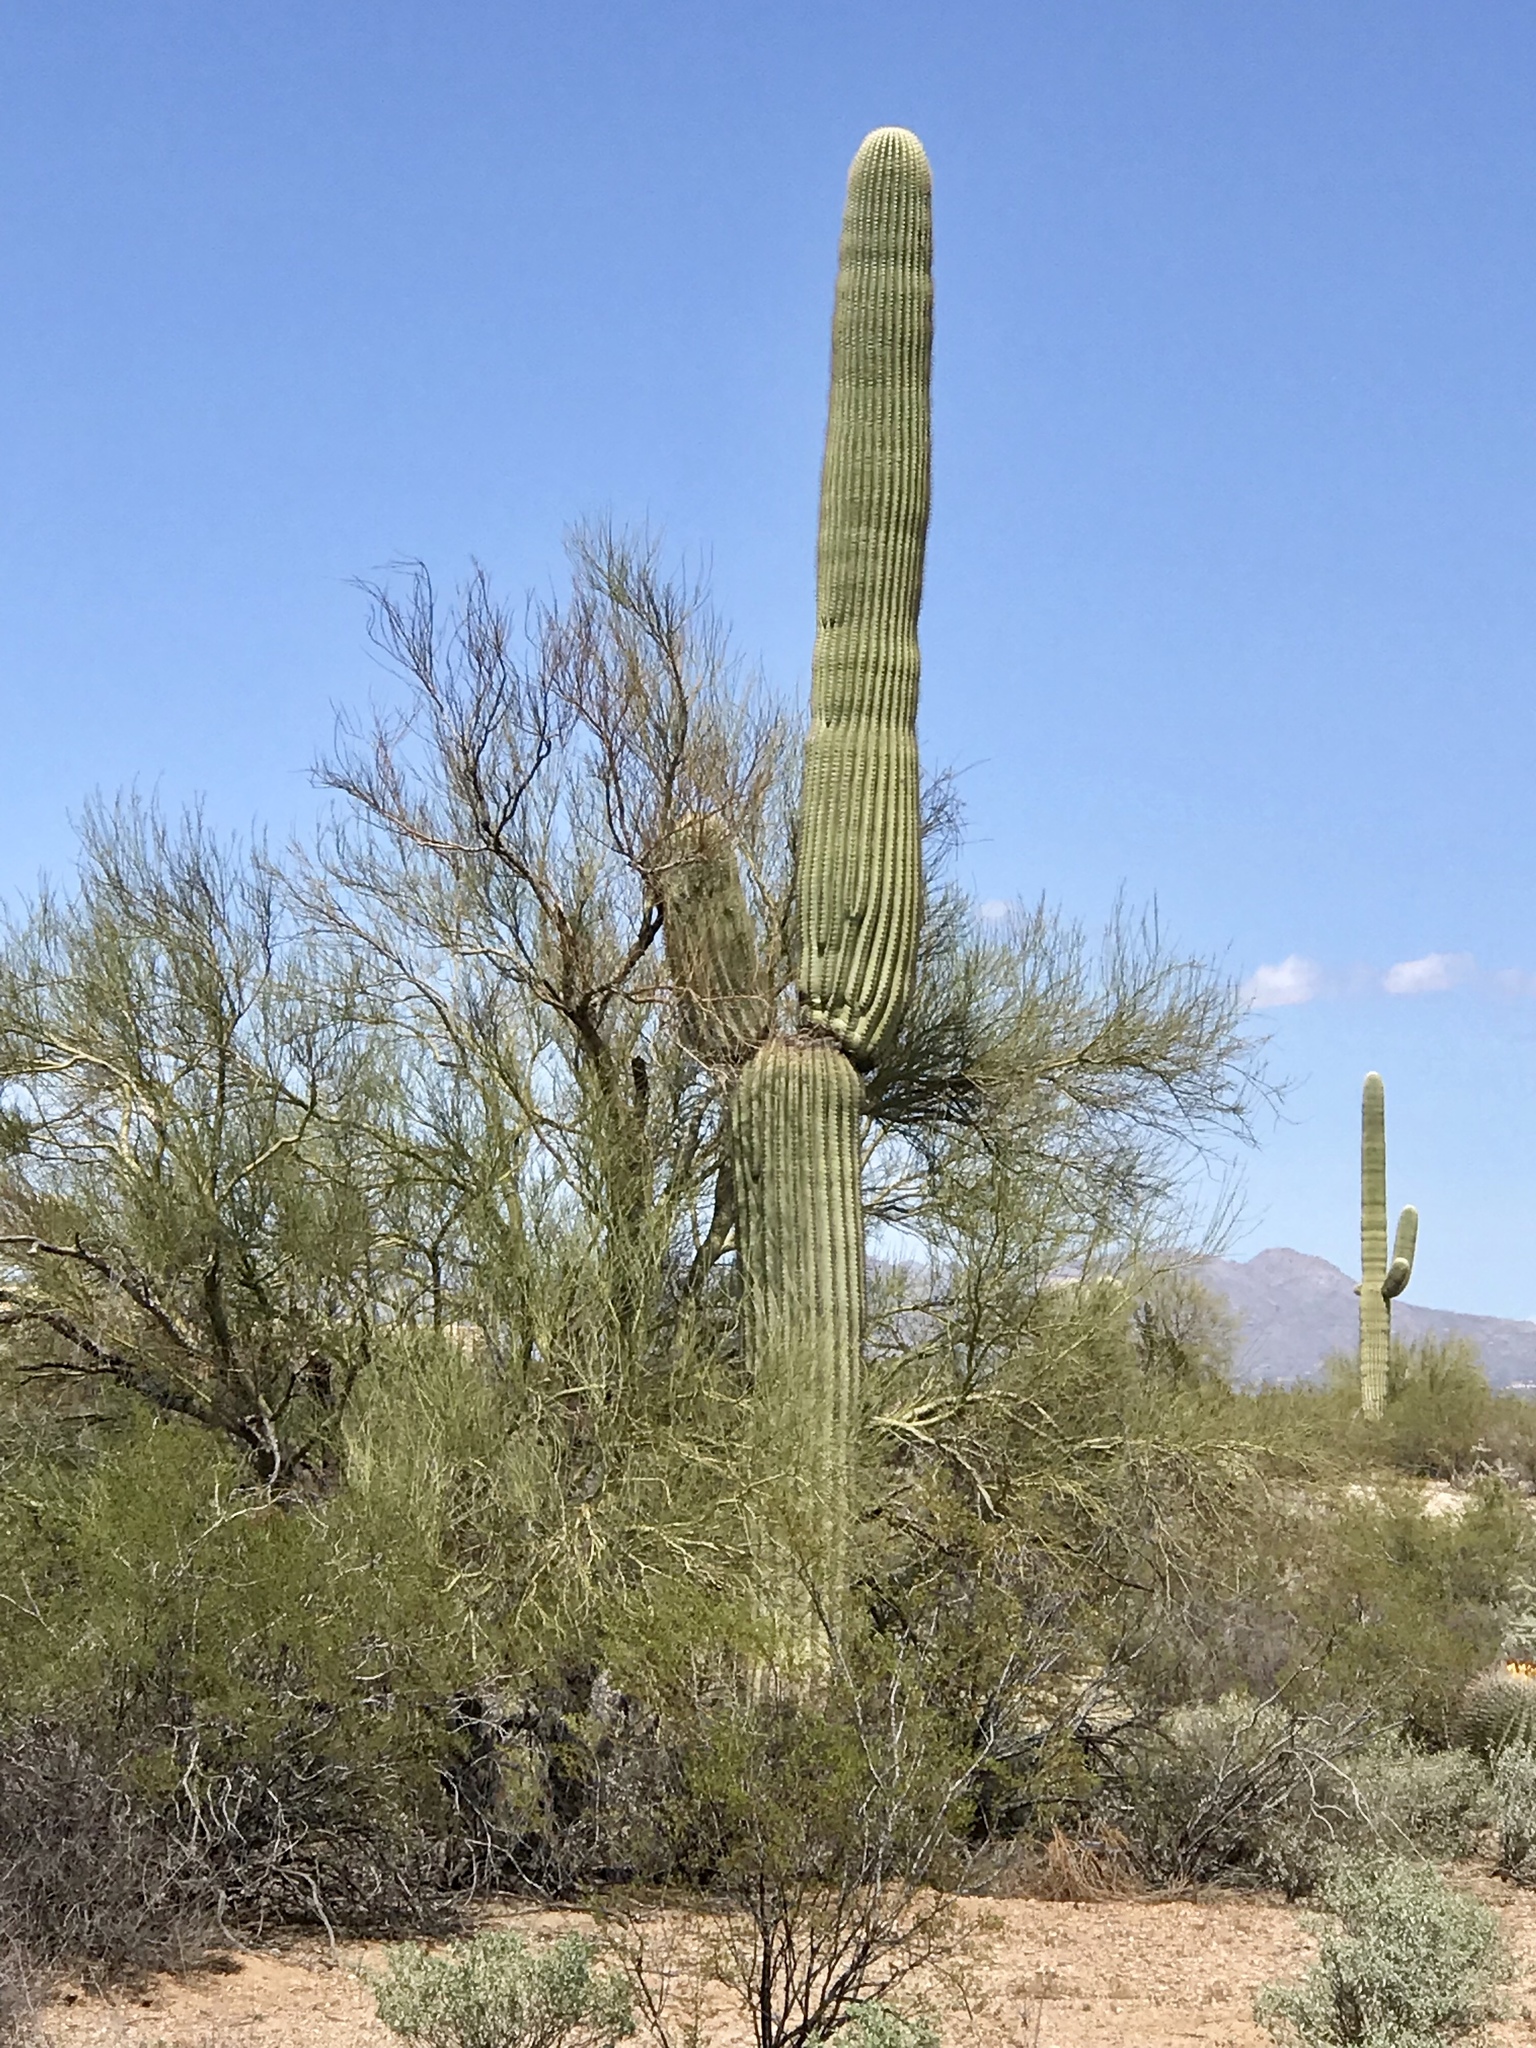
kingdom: Plantae
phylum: Tracheophyta
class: Magnoliopsida
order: Caryophyllales
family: Cactaceae
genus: Carnegiea
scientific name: Carnegiea gigantea
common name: Saguaro
